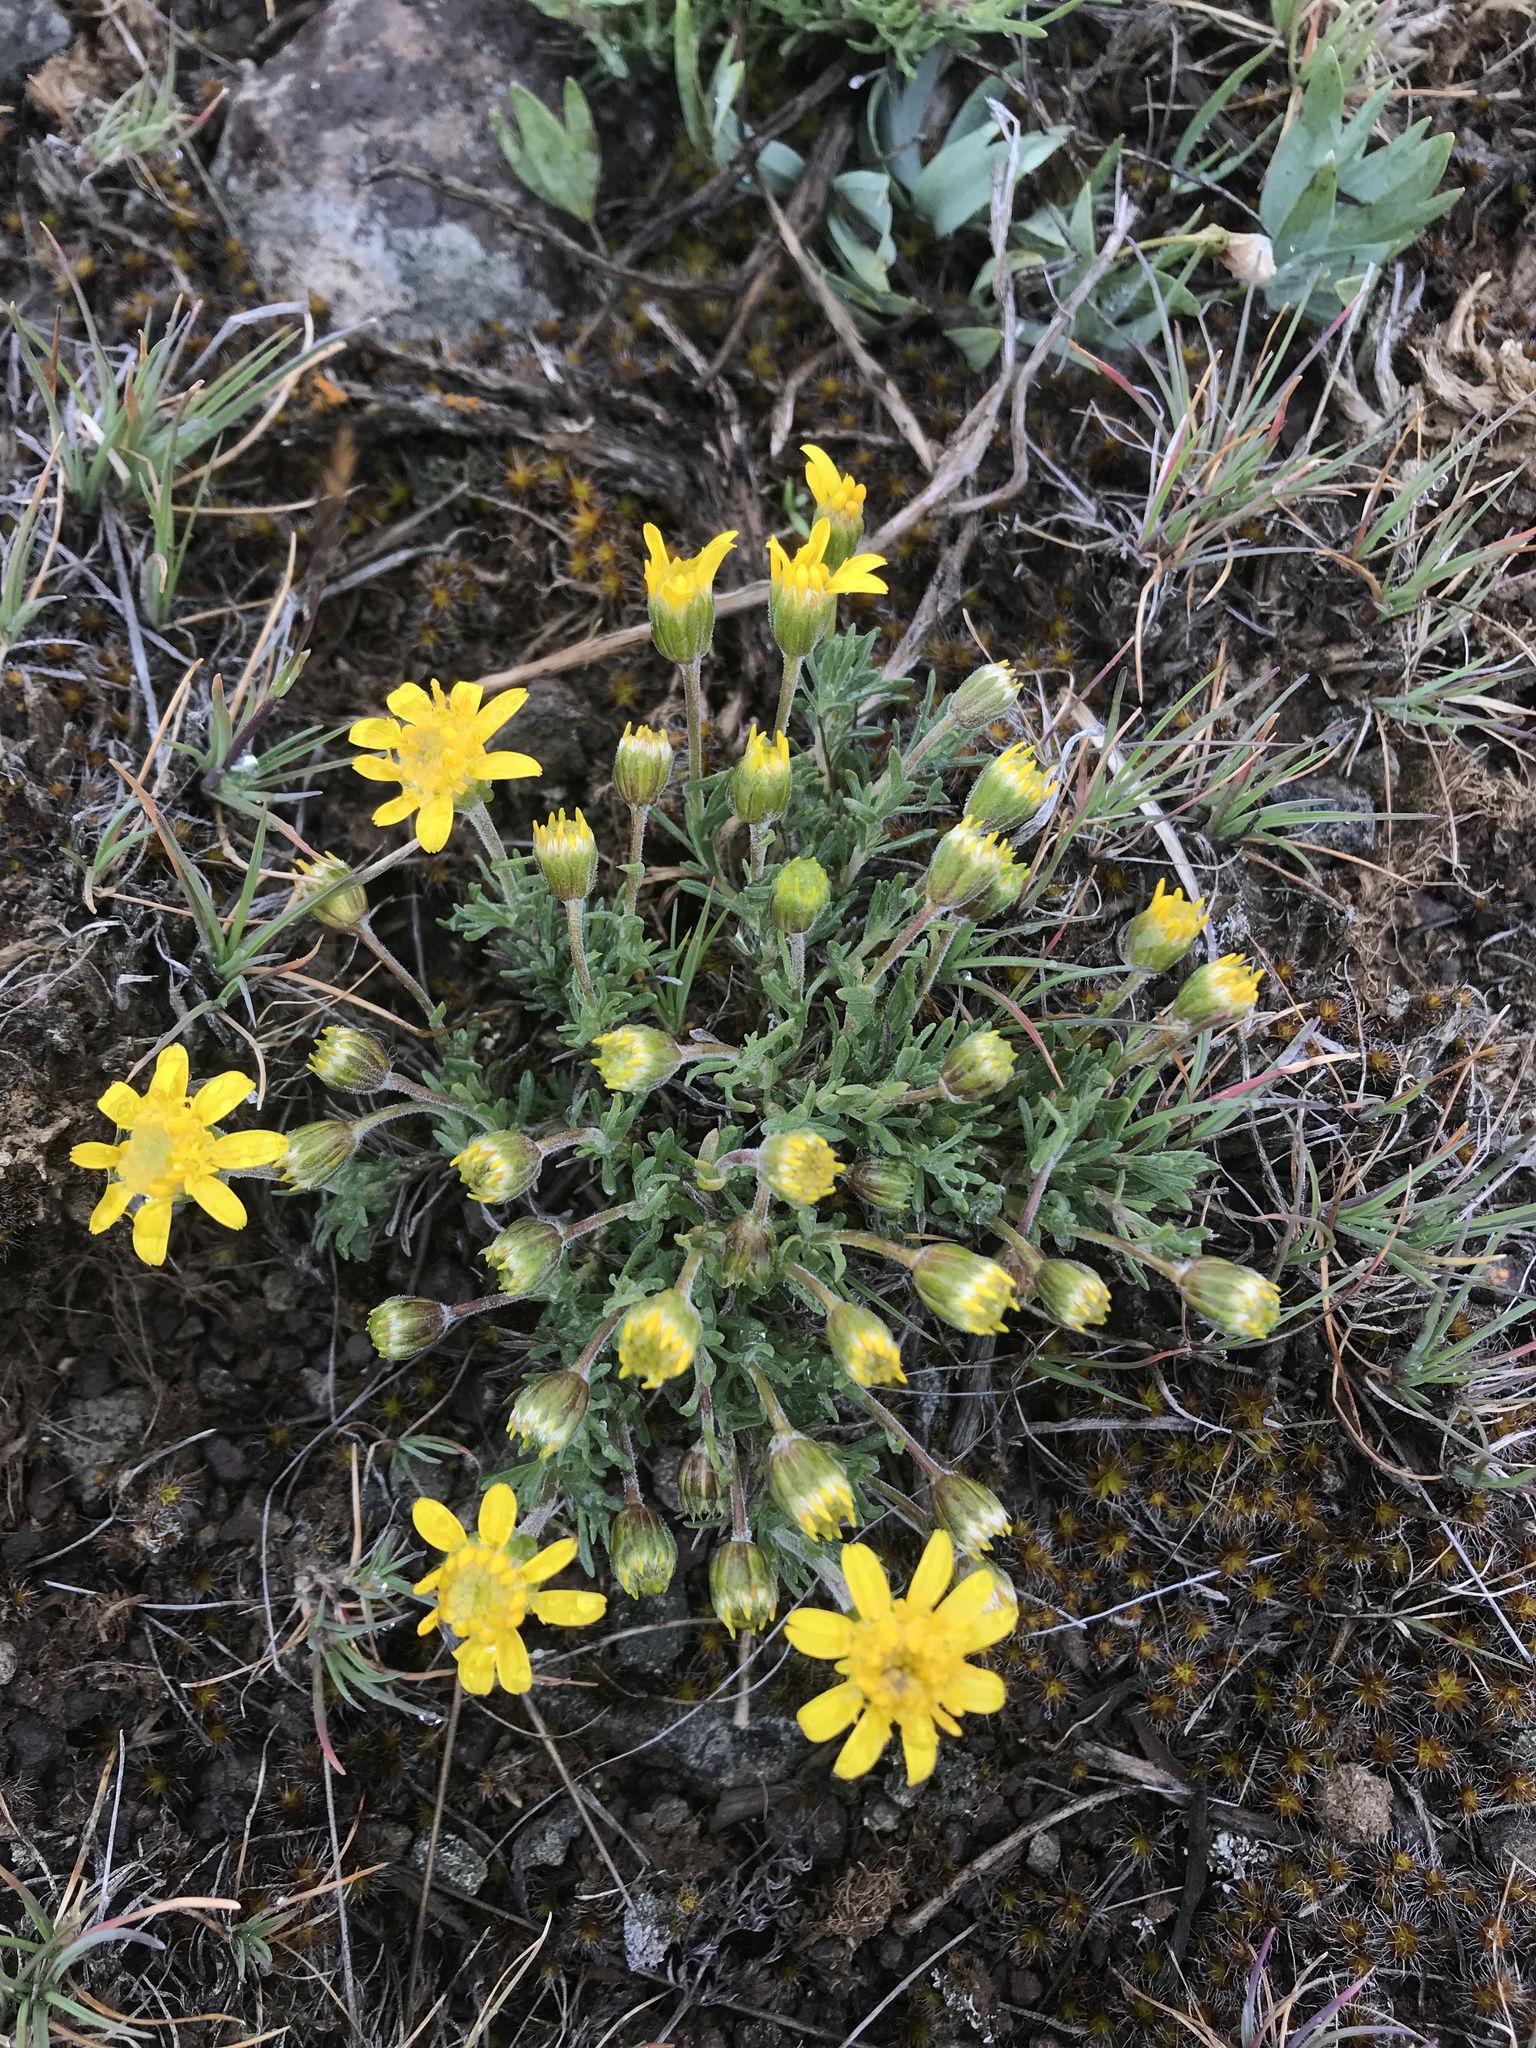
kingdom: Plantae
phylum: Tracheophyta
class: Magnoliopsida
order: Asterales
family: Asteraceae
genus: Nestotus
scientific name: Nestotus stenophyllus
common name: Narrow-leaf mock goldenweed
